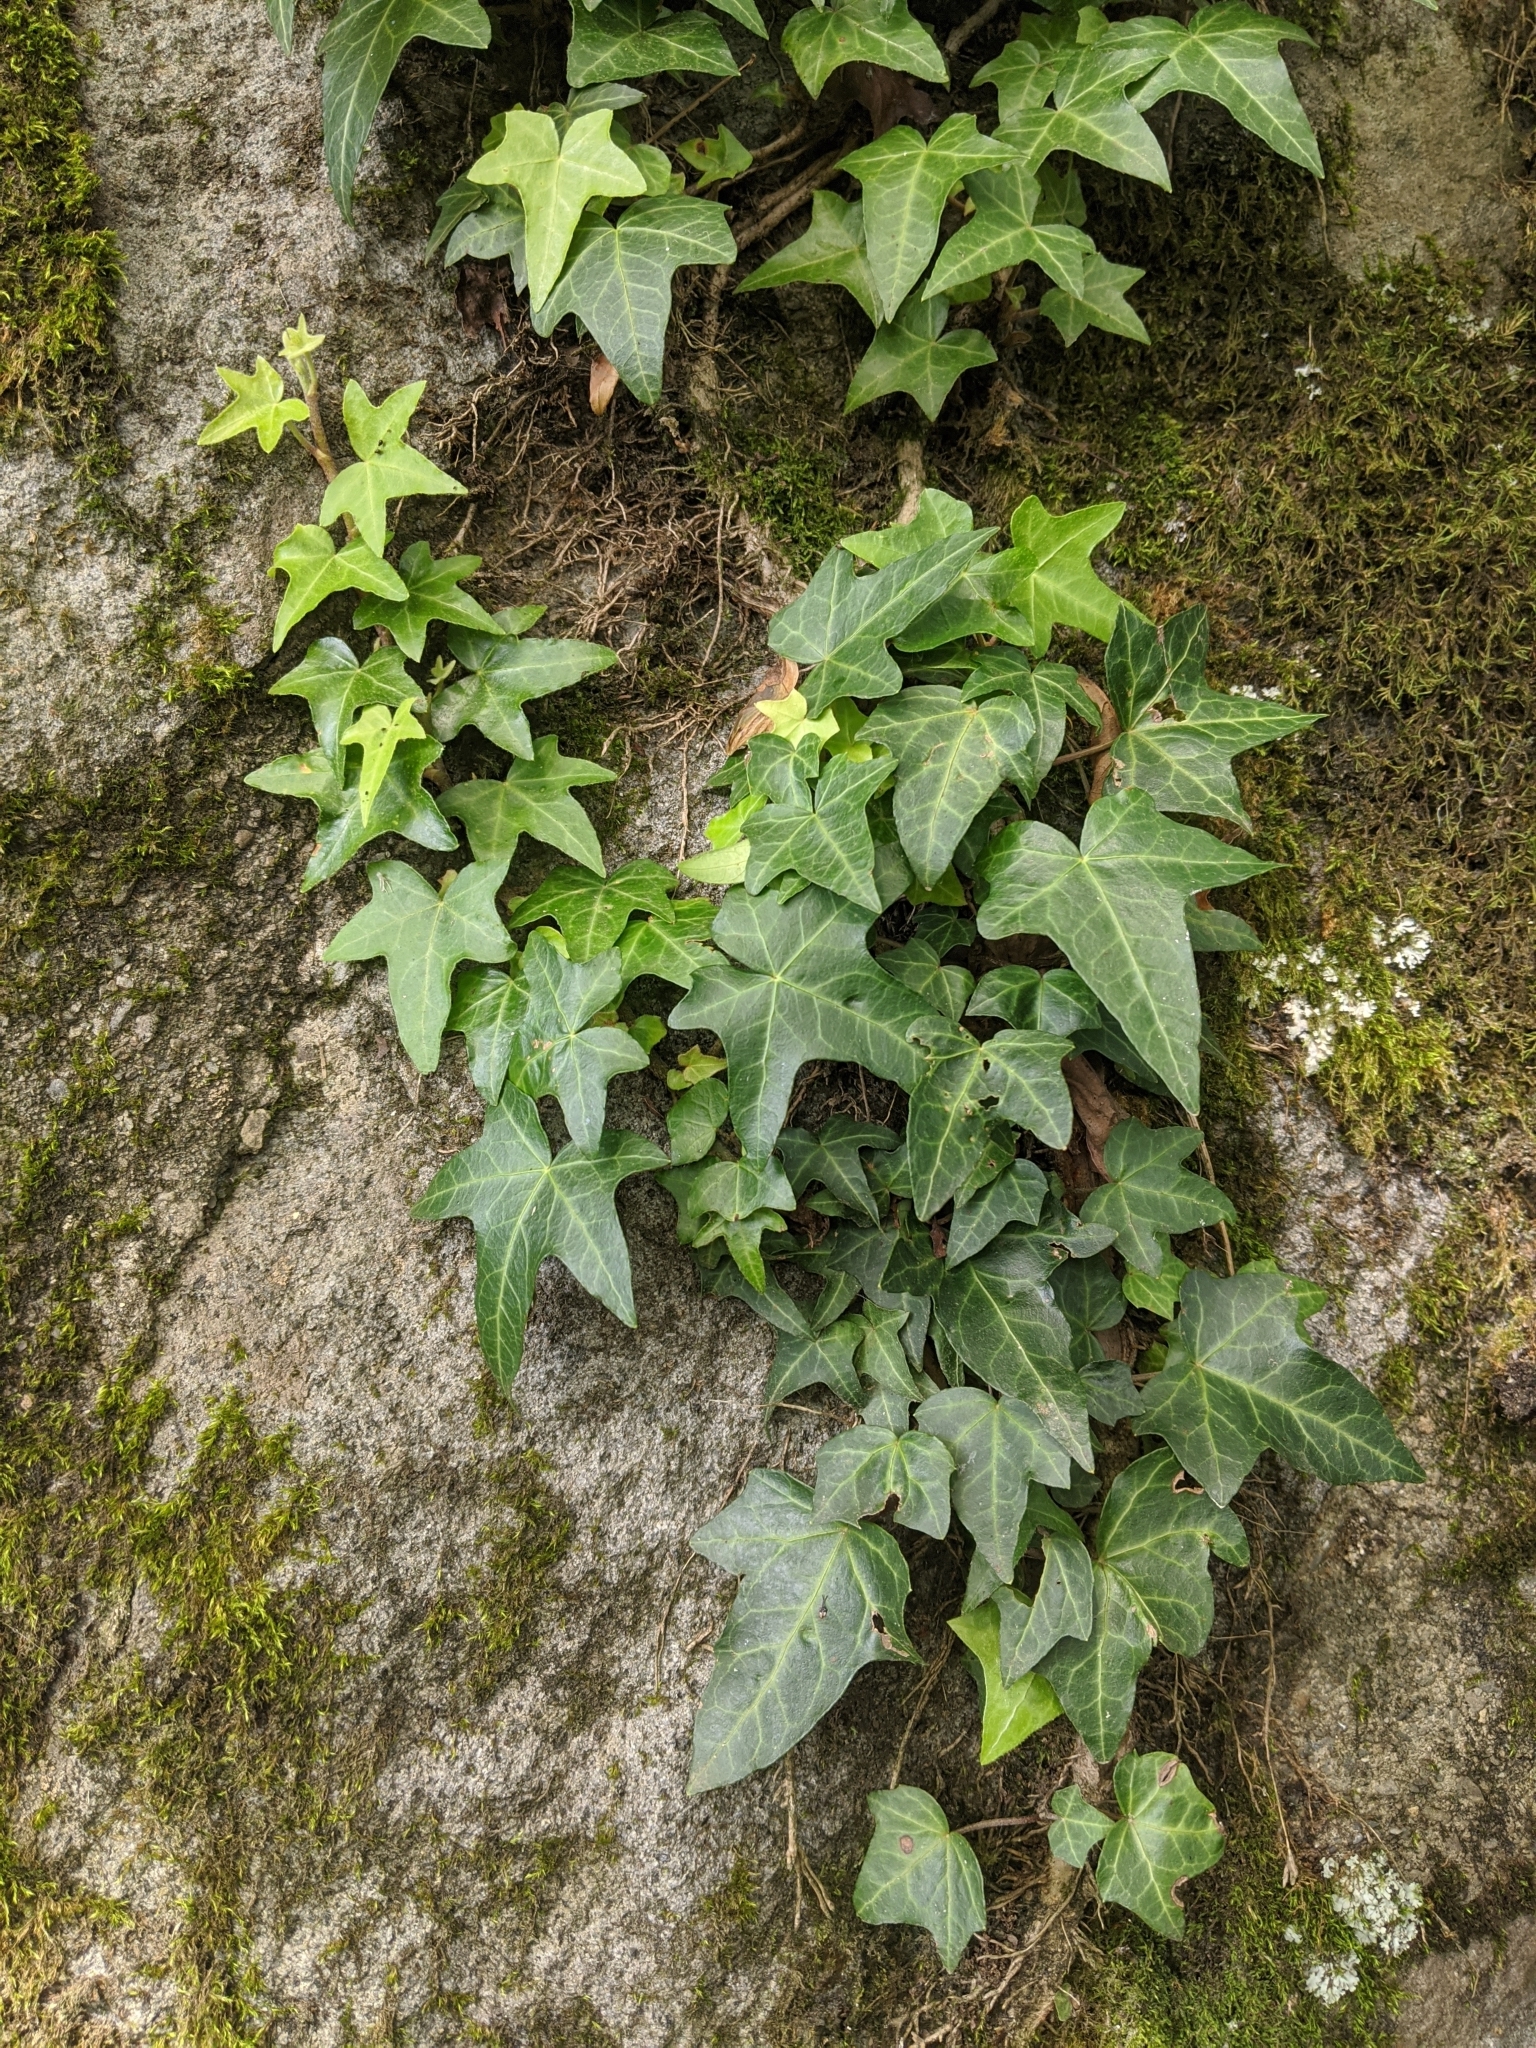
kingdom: Plantae
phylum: Tracheophyta
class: Magnoliopsida
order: Apiales
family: Araliaceae
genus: Hedera
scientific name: Hedera rhombea
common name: Japanese ivy
